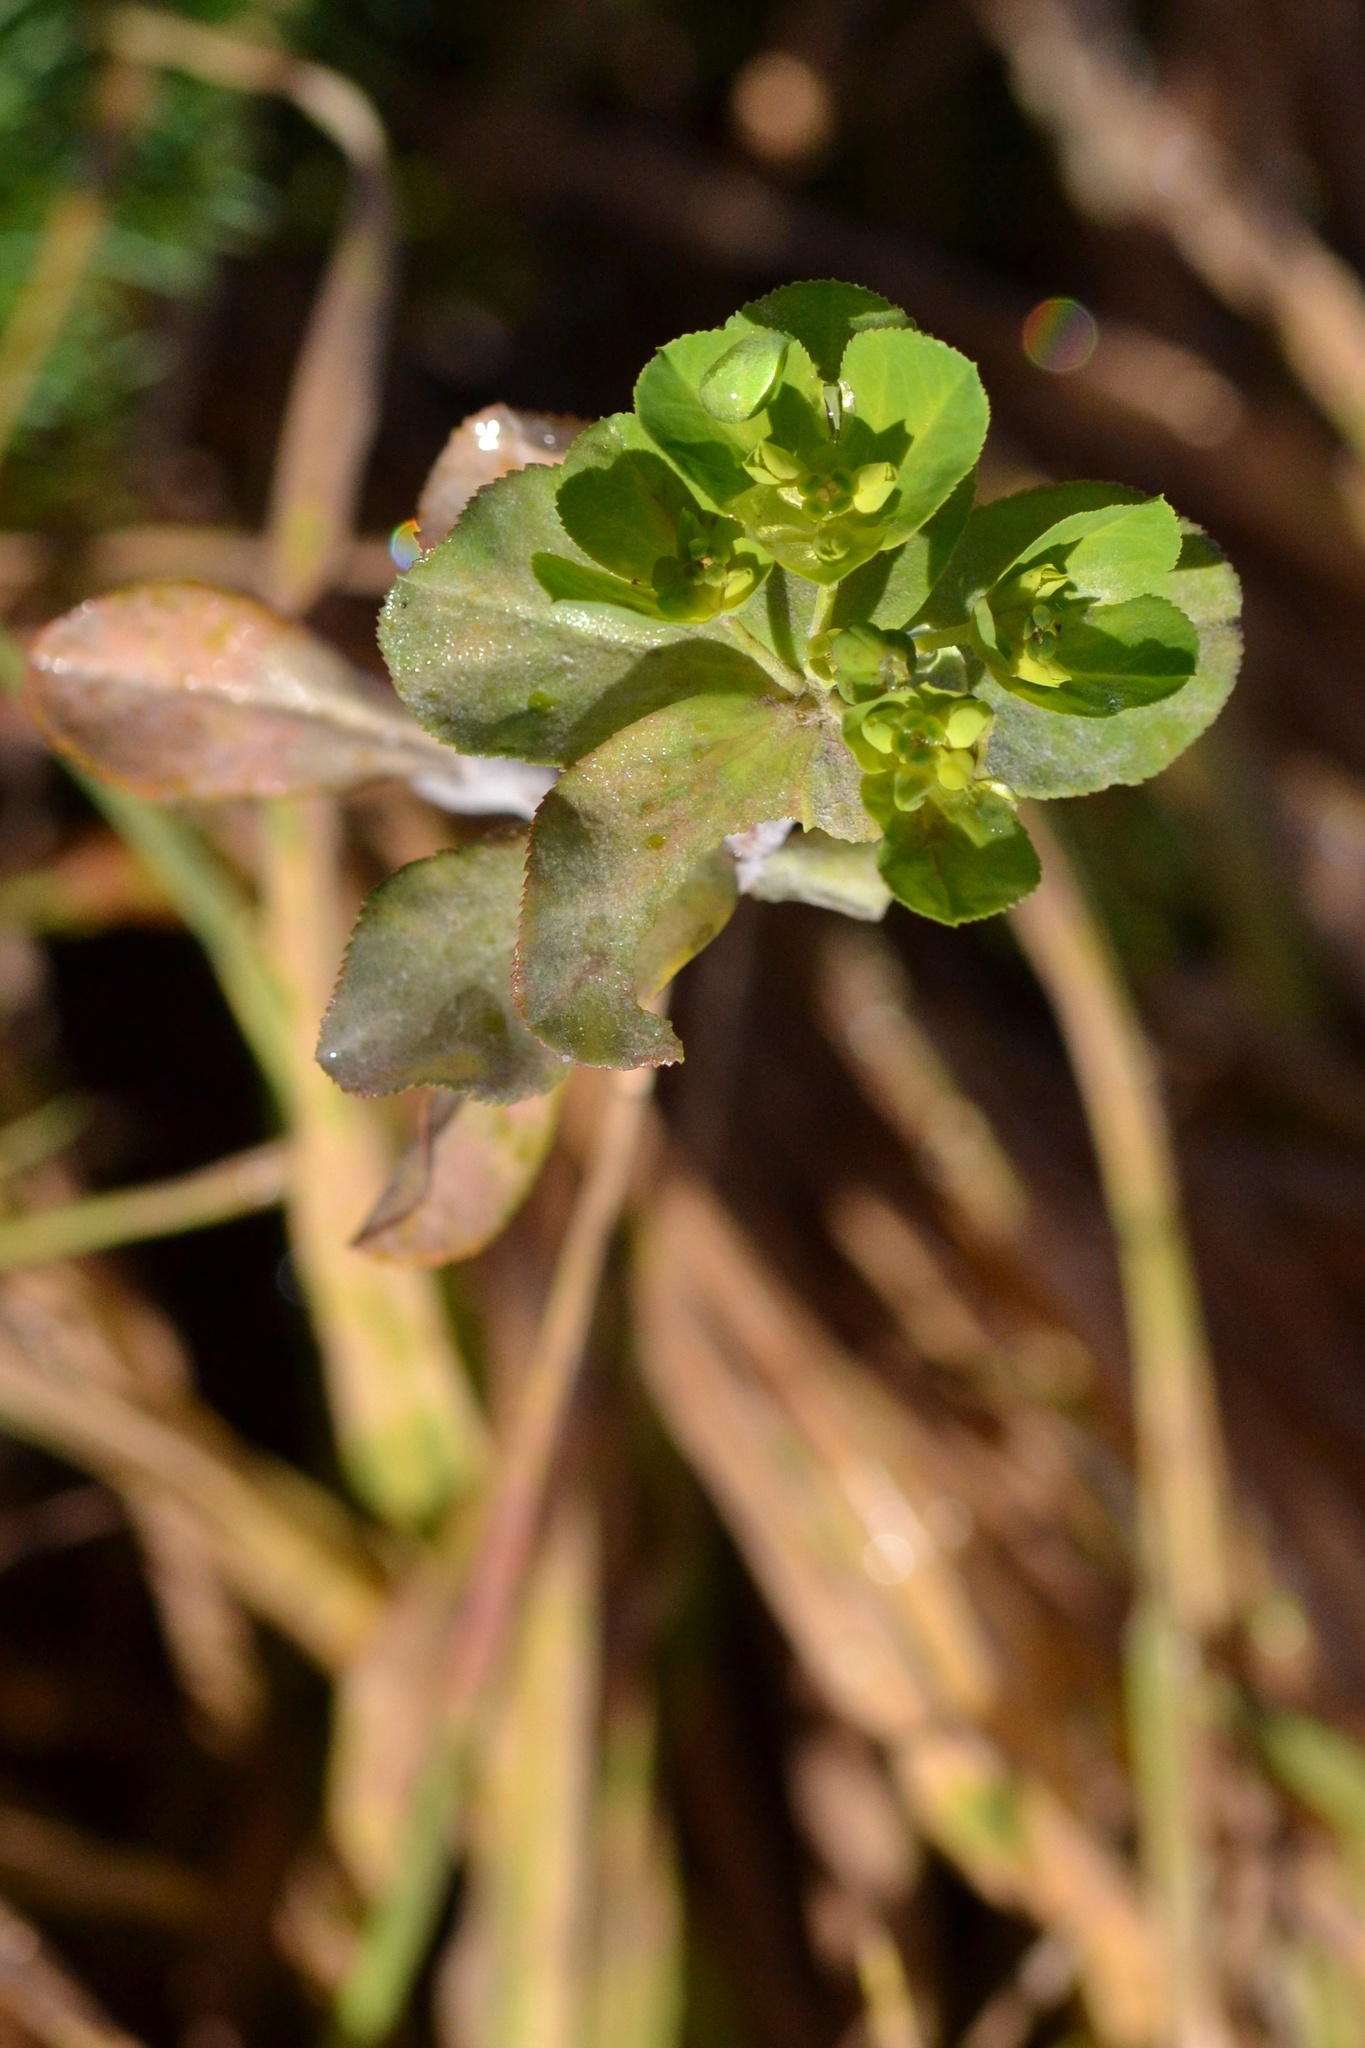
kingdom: Plantae
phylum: Tracheophyta
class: Magnoliopsida
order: Malpighiales
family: Euphorbiaceae
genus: Euphorbia
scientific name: Euphorbia helioscopia
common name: Sun spurge
